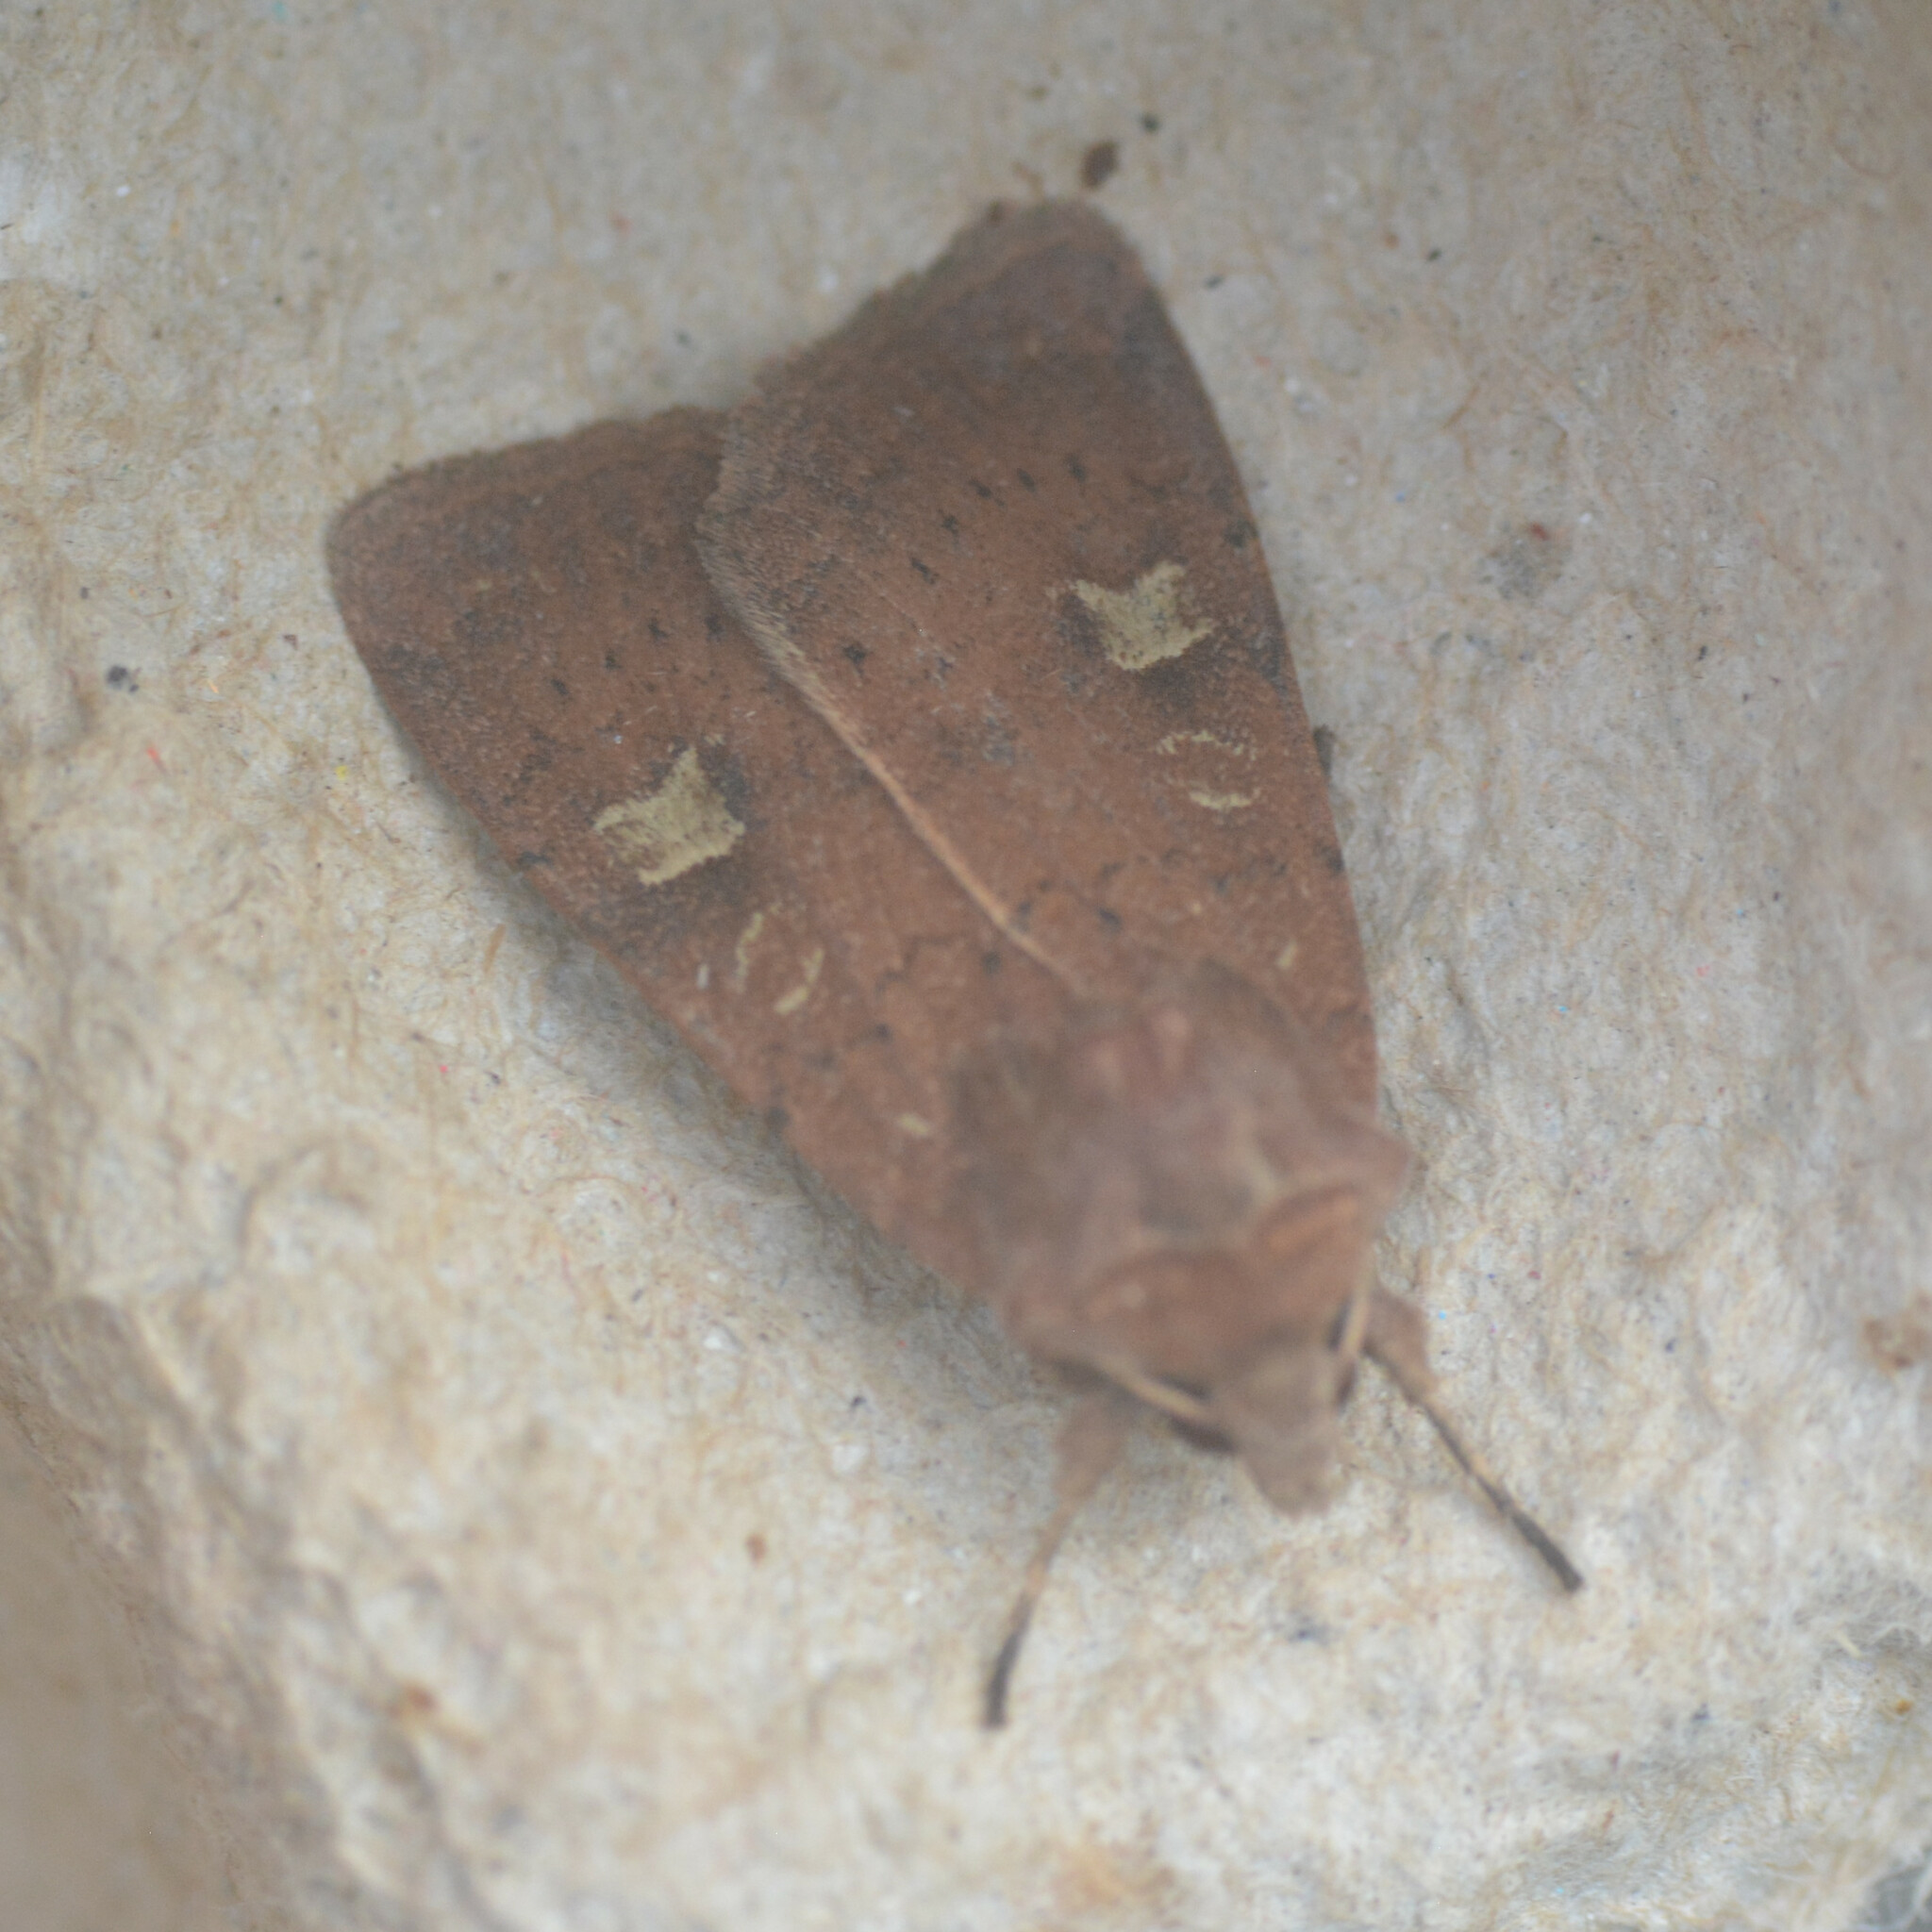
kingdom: Animalia
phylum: Arthropoda
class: Insecta
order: Lepidoptera
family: Noctuidae
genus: Xestia
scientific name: Xestia xanthographa
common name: Square-spot rustic
